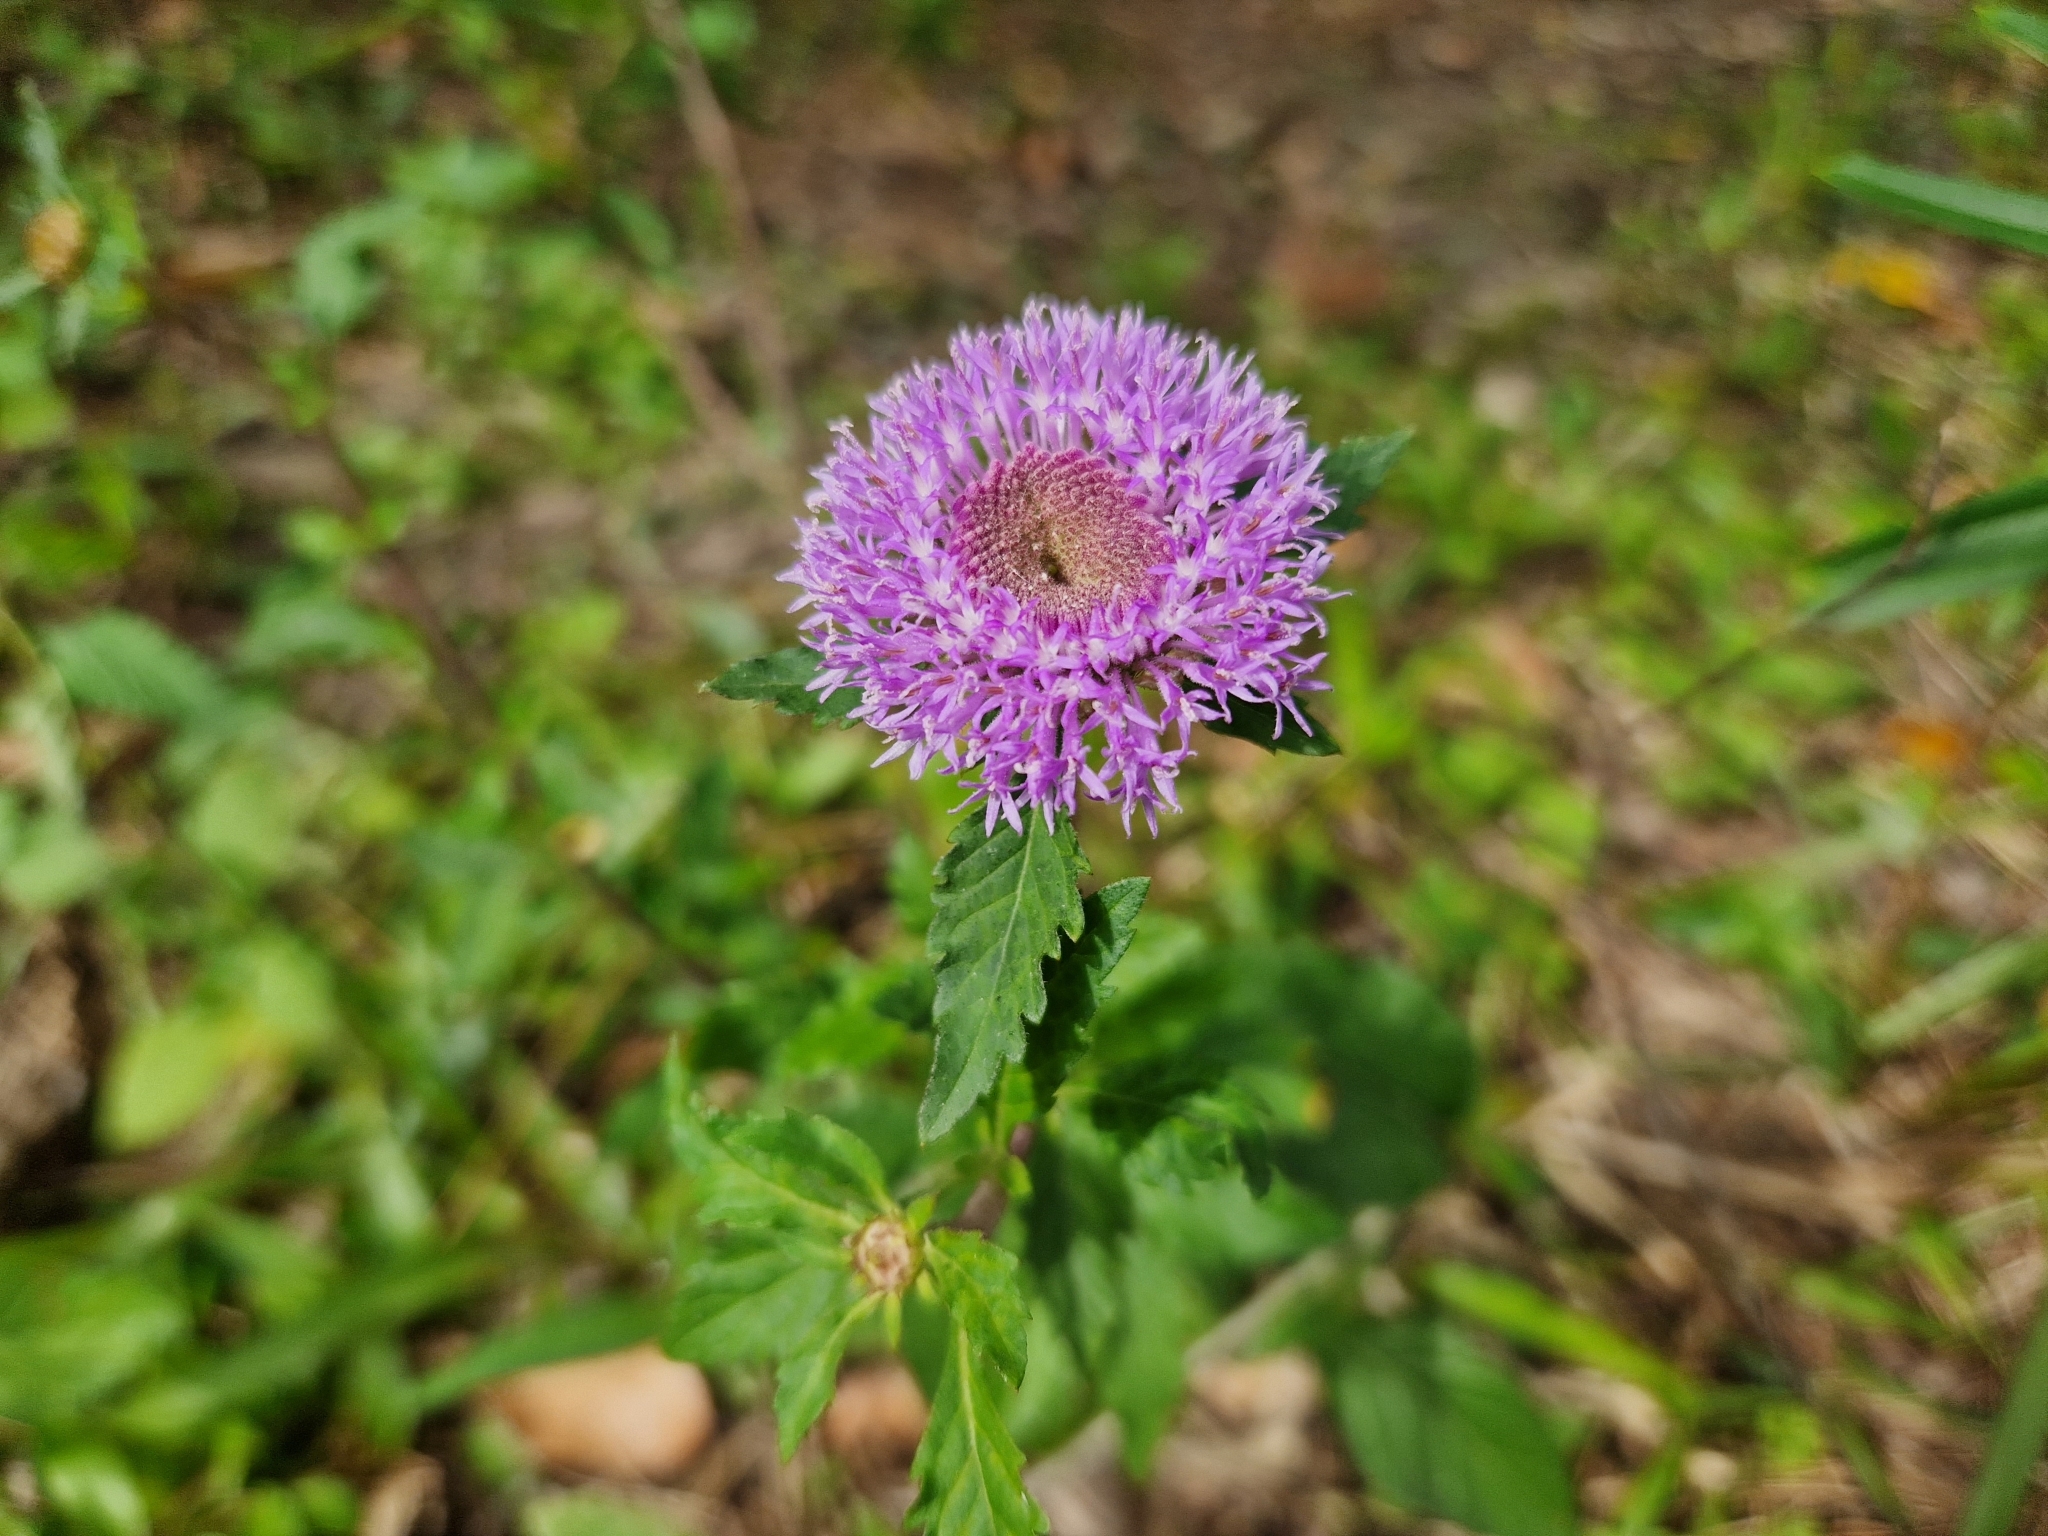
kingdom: Plantae
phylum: Tracheophyta
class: Magnoliopsida
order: Asterales
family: Asteraceae
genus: Centratherum
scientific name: Centratherum punctatum
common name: Larkdaisy
